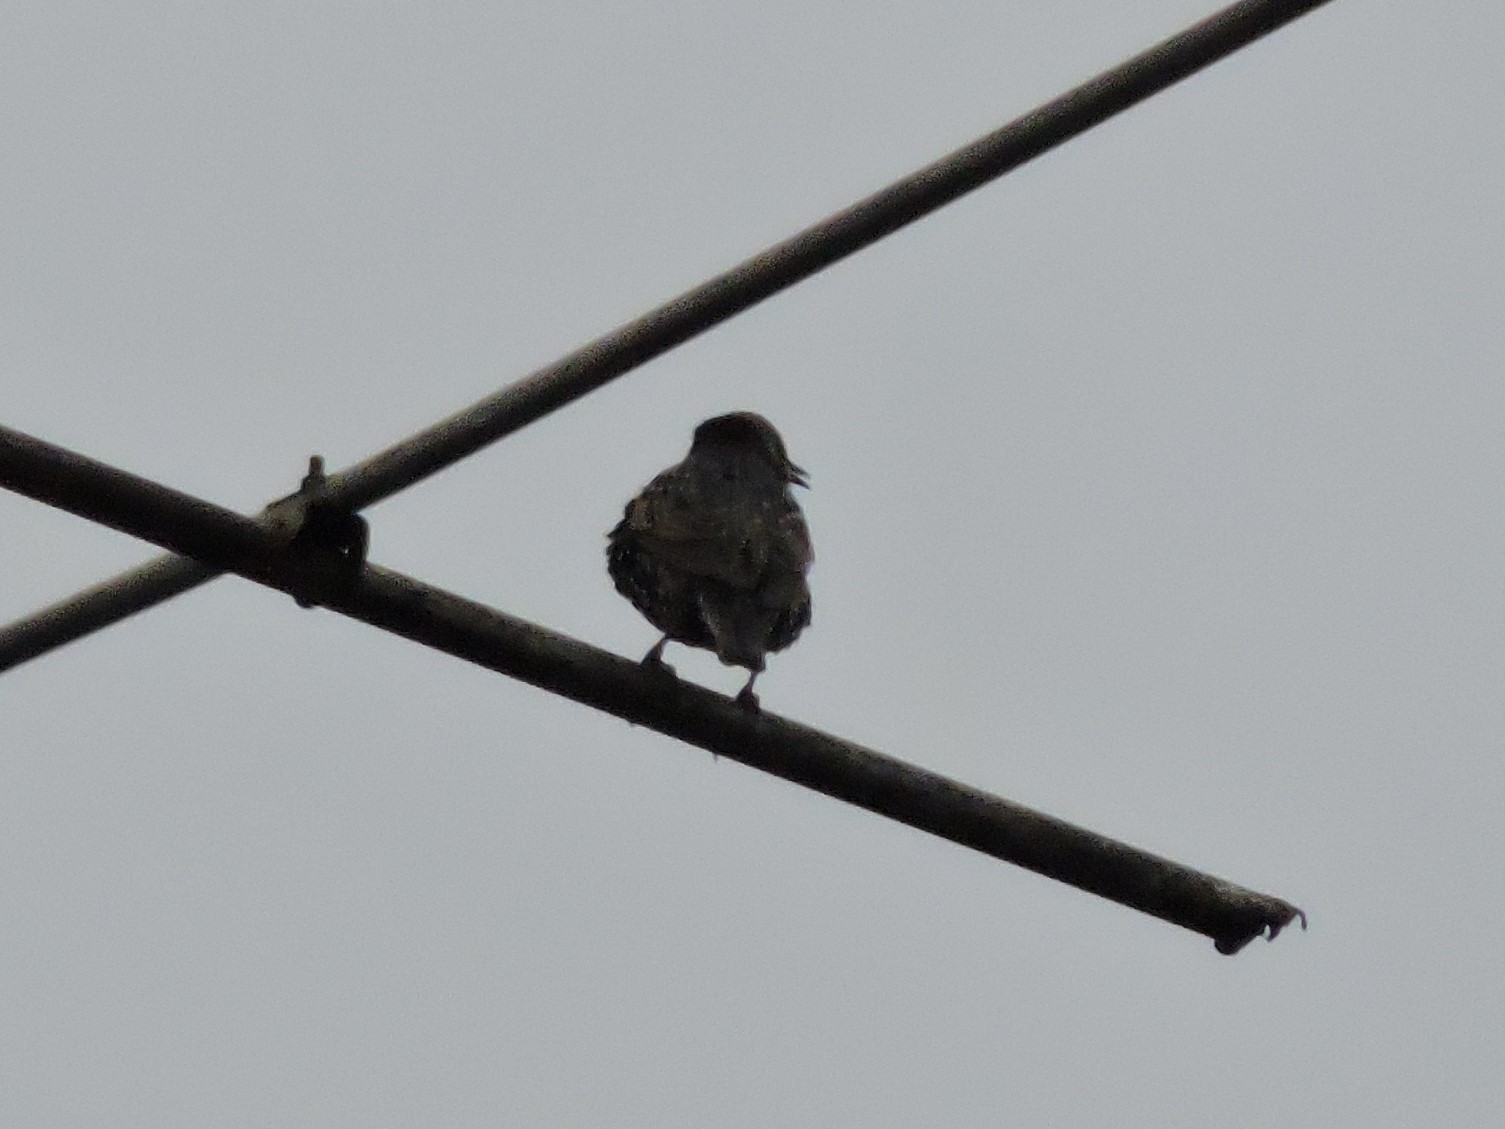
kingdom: Animalia
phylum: Chordata
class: Aves
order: Passeriformes
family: Sturnidae
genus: Sturnus
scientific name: Sturnus vulgaris
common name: Common starling
